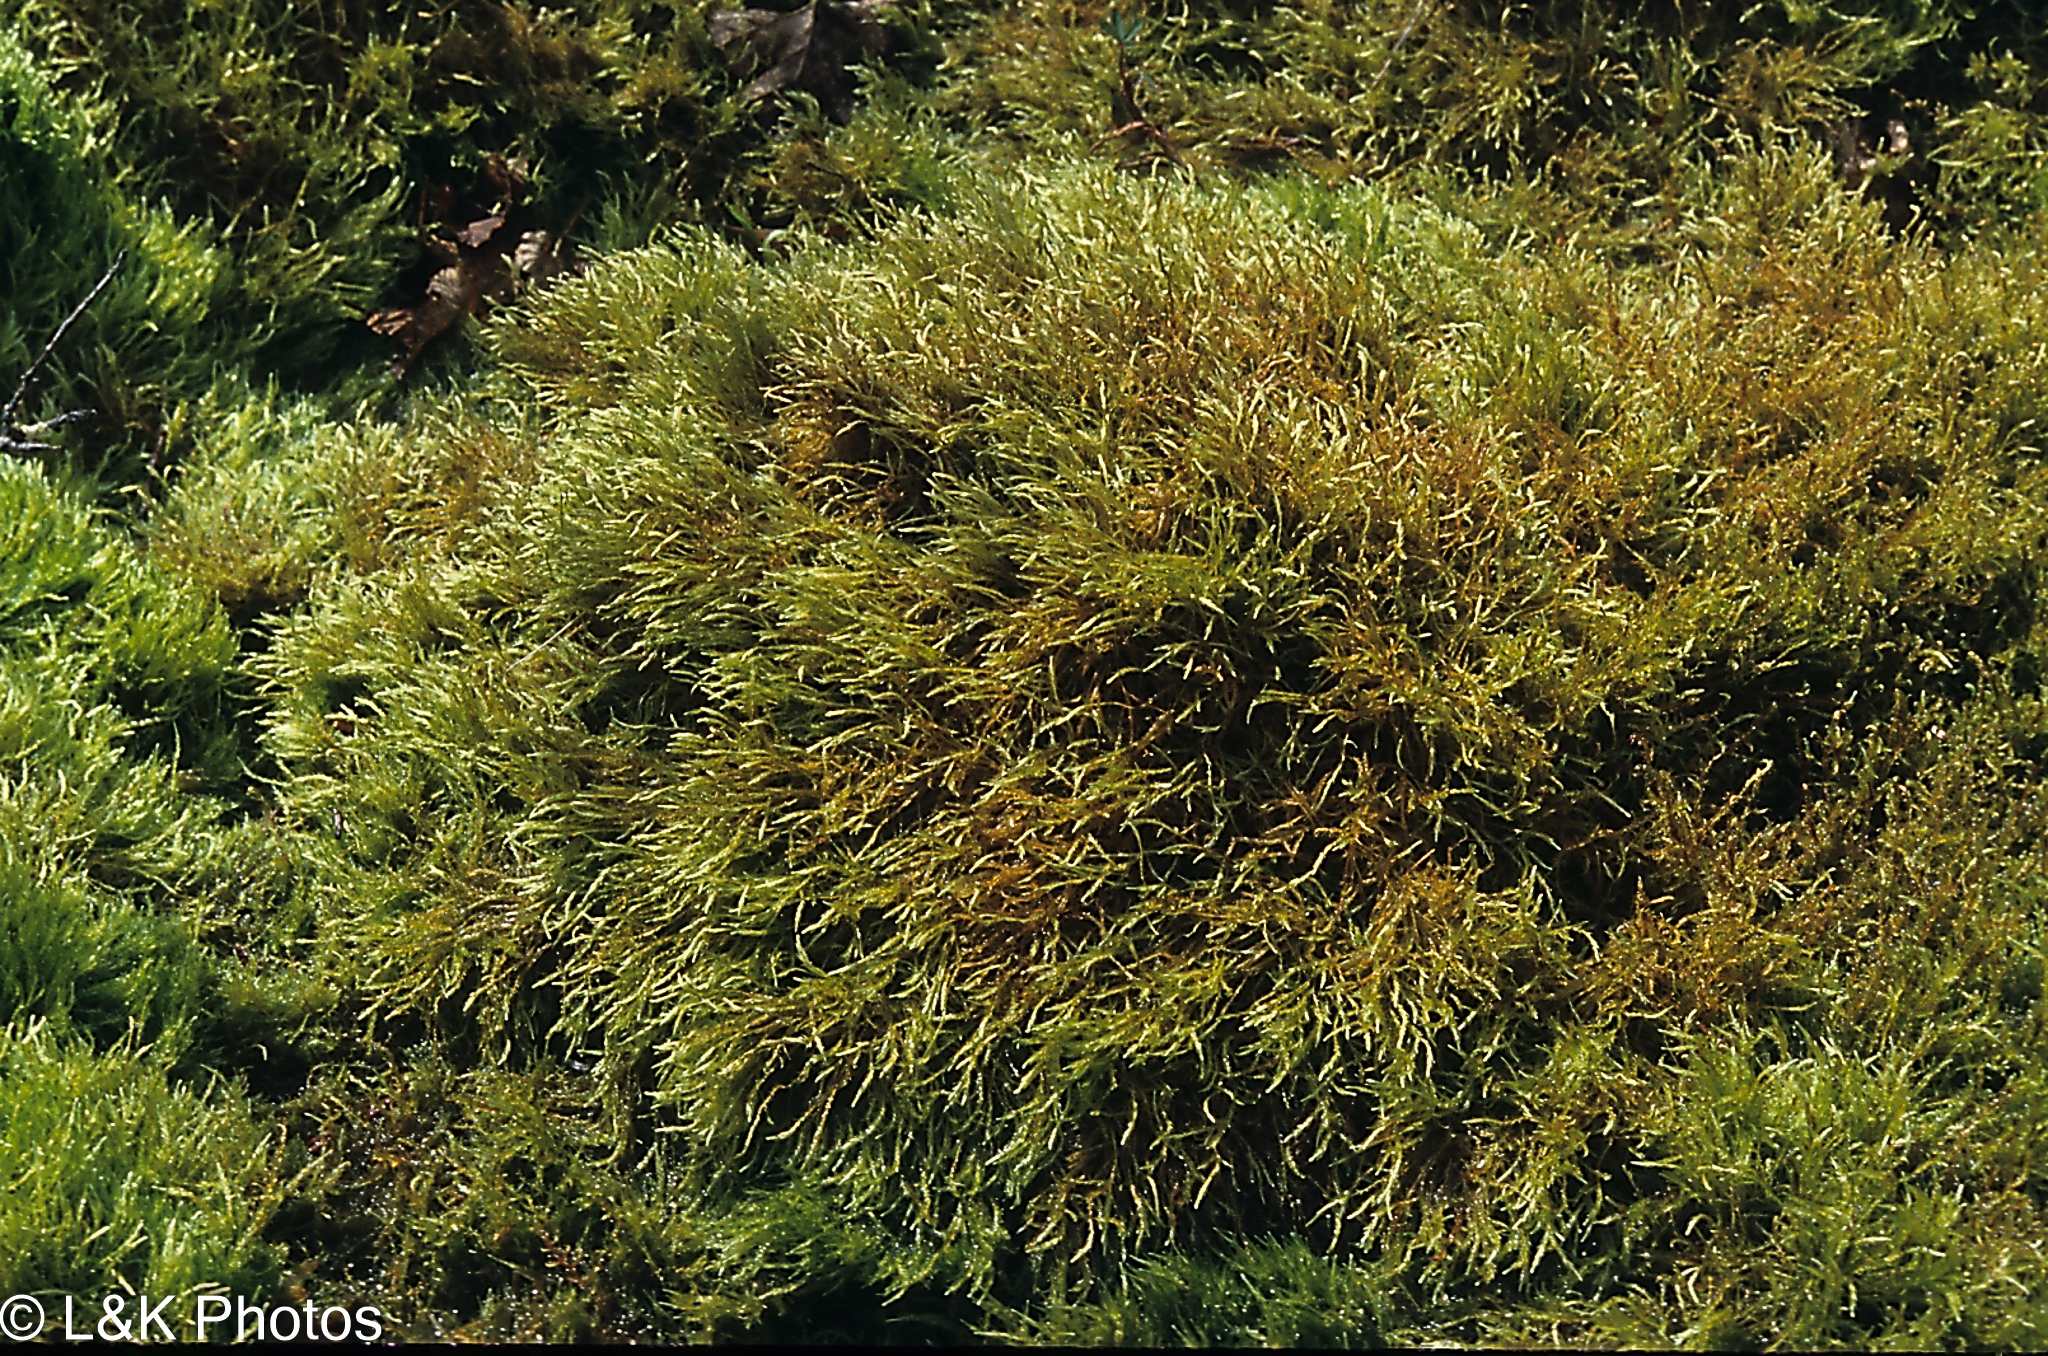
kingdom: Plantae
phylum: Bryophyta
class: Bryopsida
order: Hypnales
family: Calliergonaceae
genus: Straminergon
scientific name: Straminergon stramineum
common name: Straw moss
